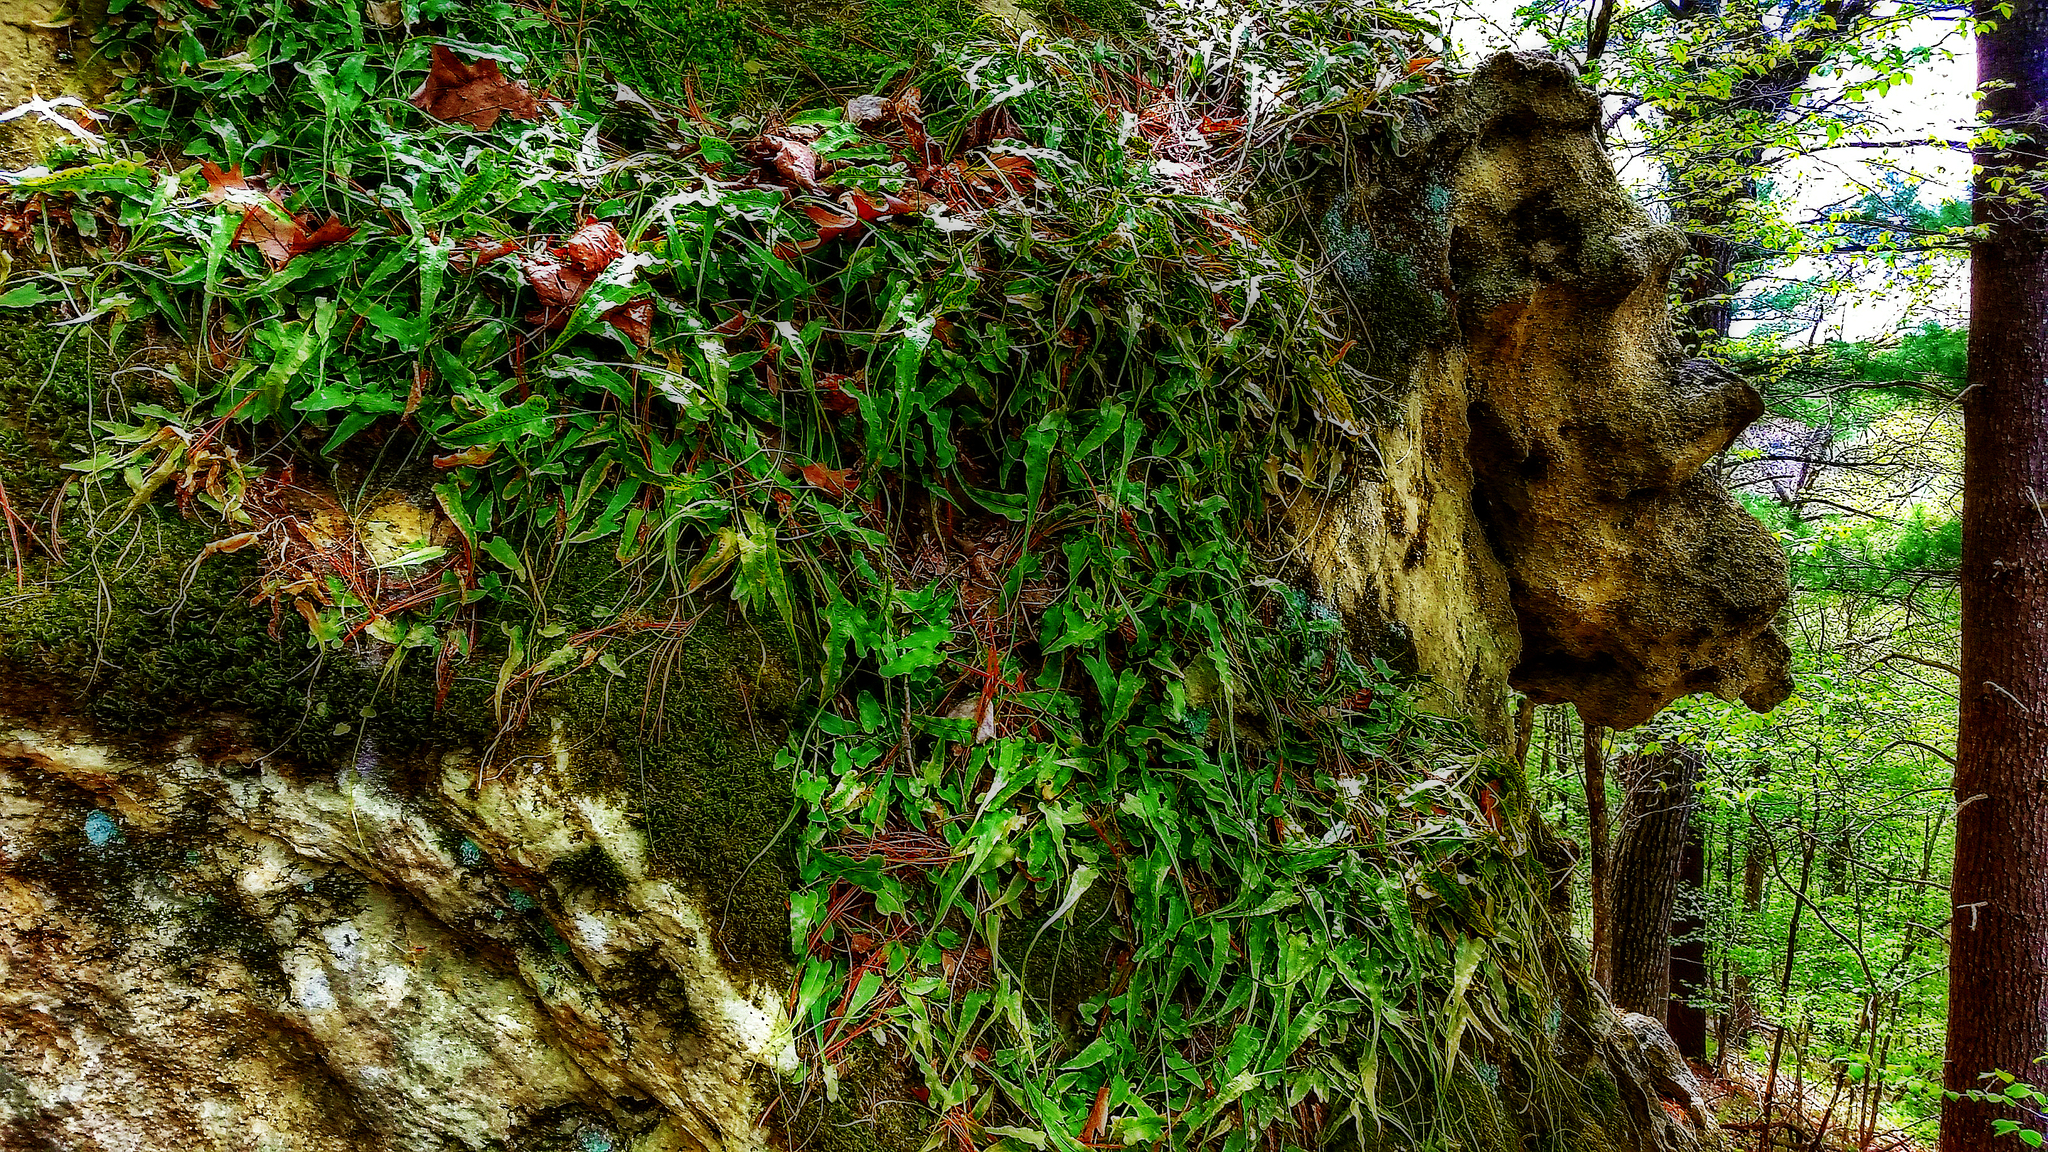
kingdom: Plantae
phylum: Tracheophyta
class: Polypodiopsida
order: Polypodiales
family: Aspleniaceae
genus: Asplenium
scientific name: Asplenium rhizophyllum
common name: Walking fern
